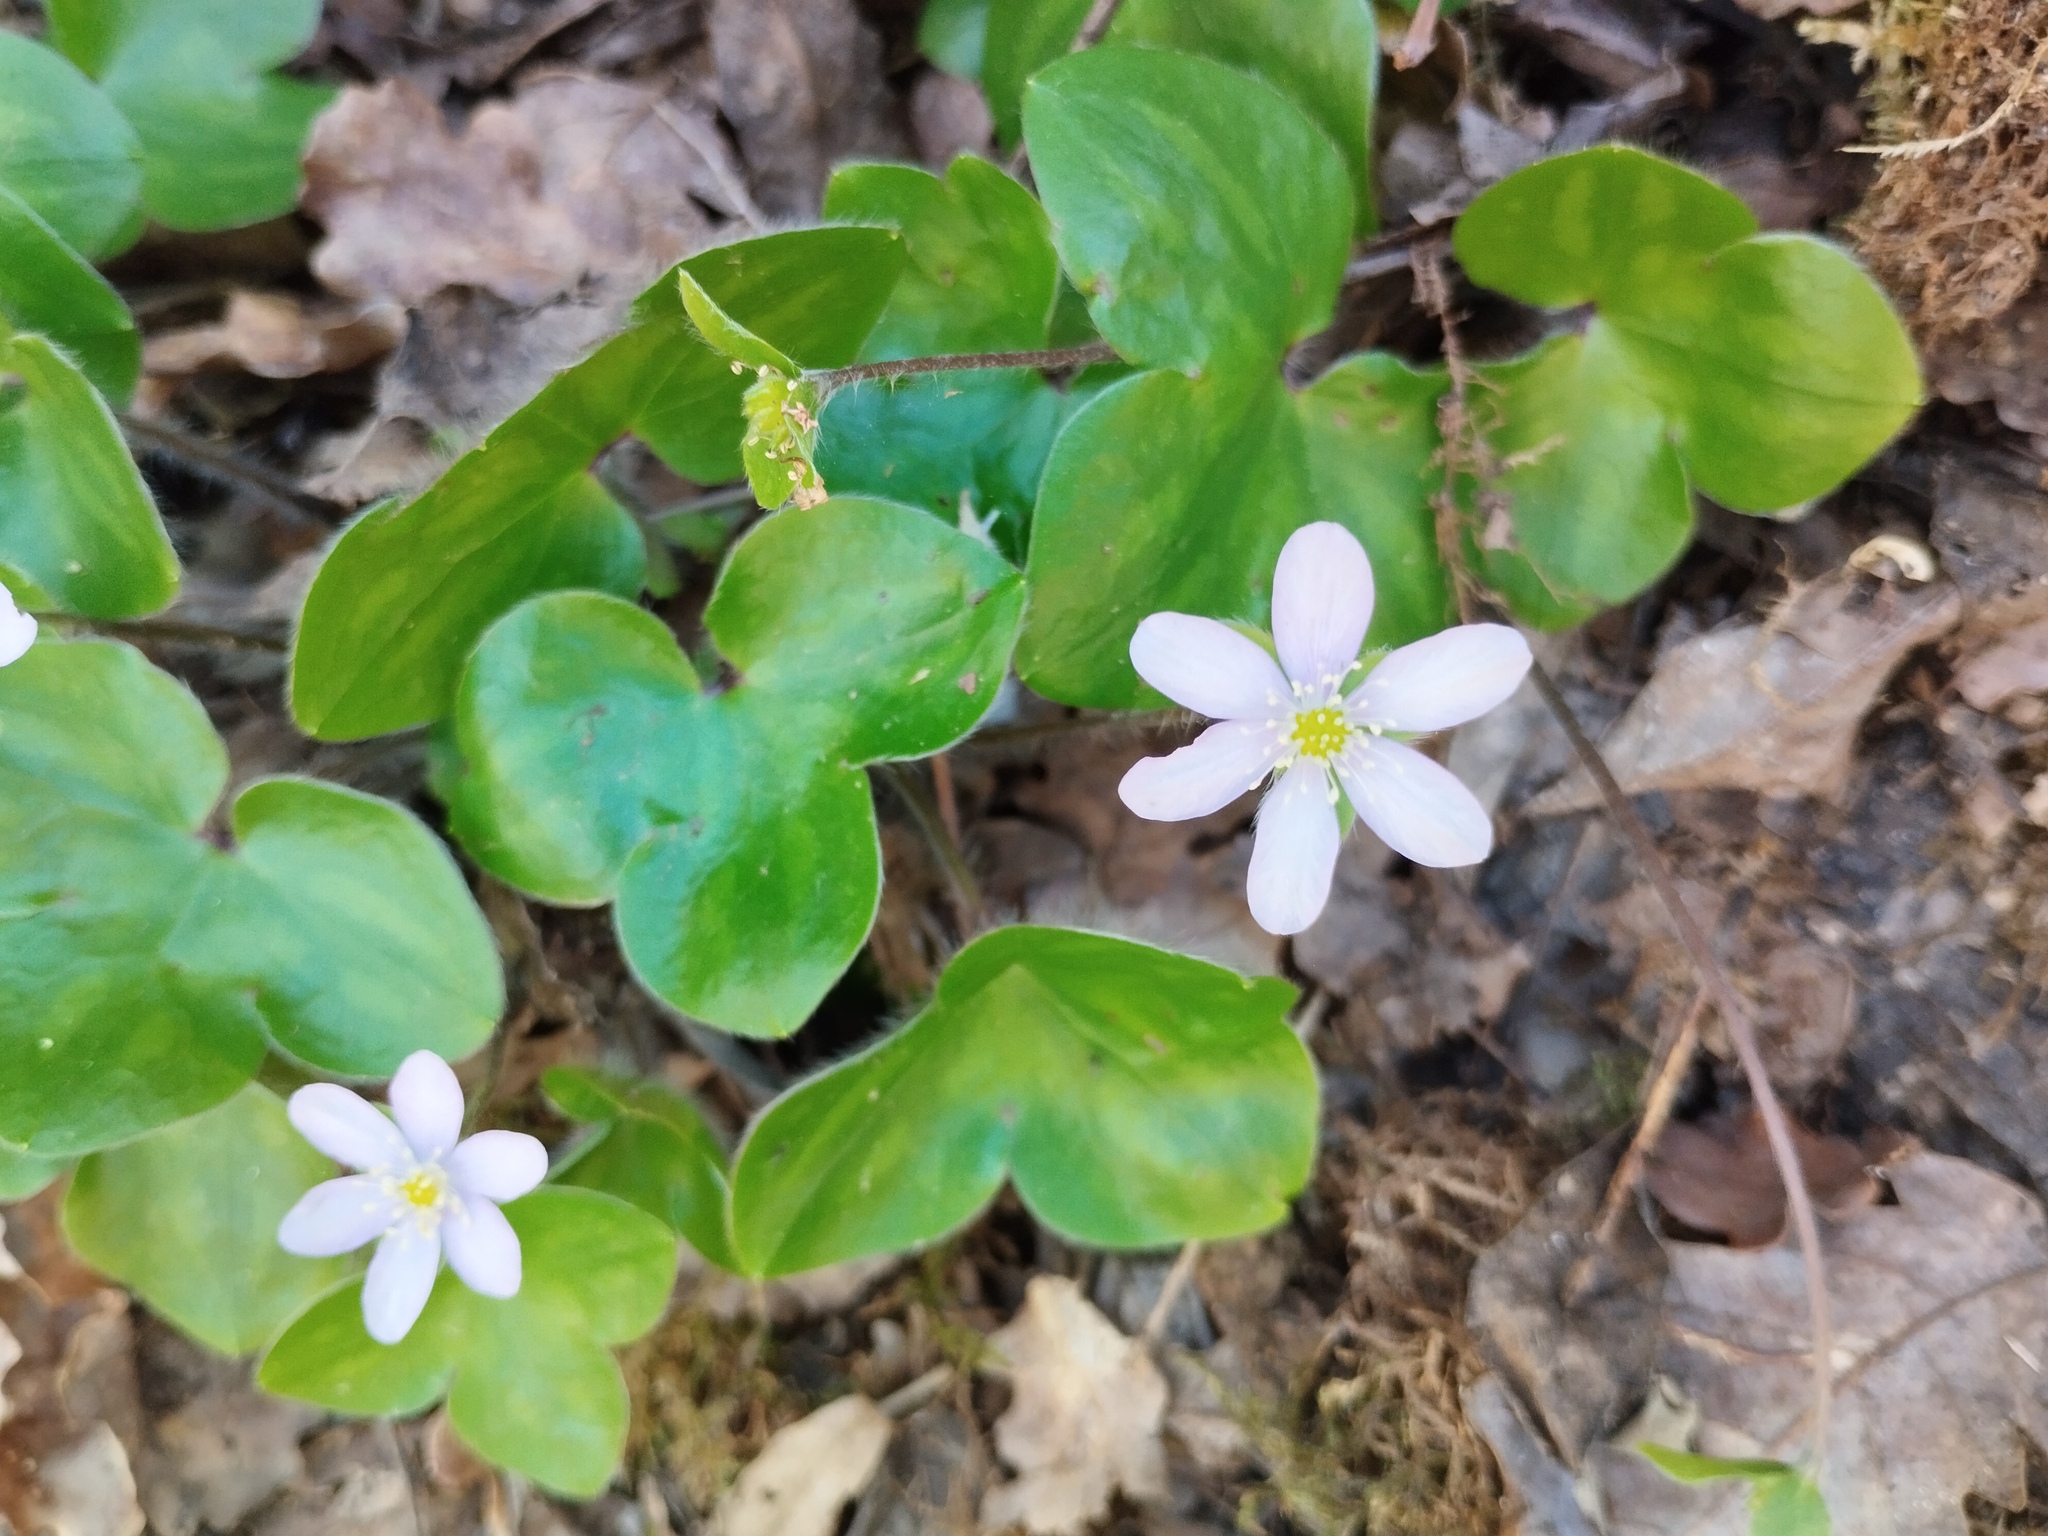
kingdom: Plantae
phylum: Tracheophyta
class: Magnoliopsida
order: Ranunculales
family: Ranunculaceae
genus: Hepatica
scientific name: Hepatica nobilis
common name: Liverleaf
